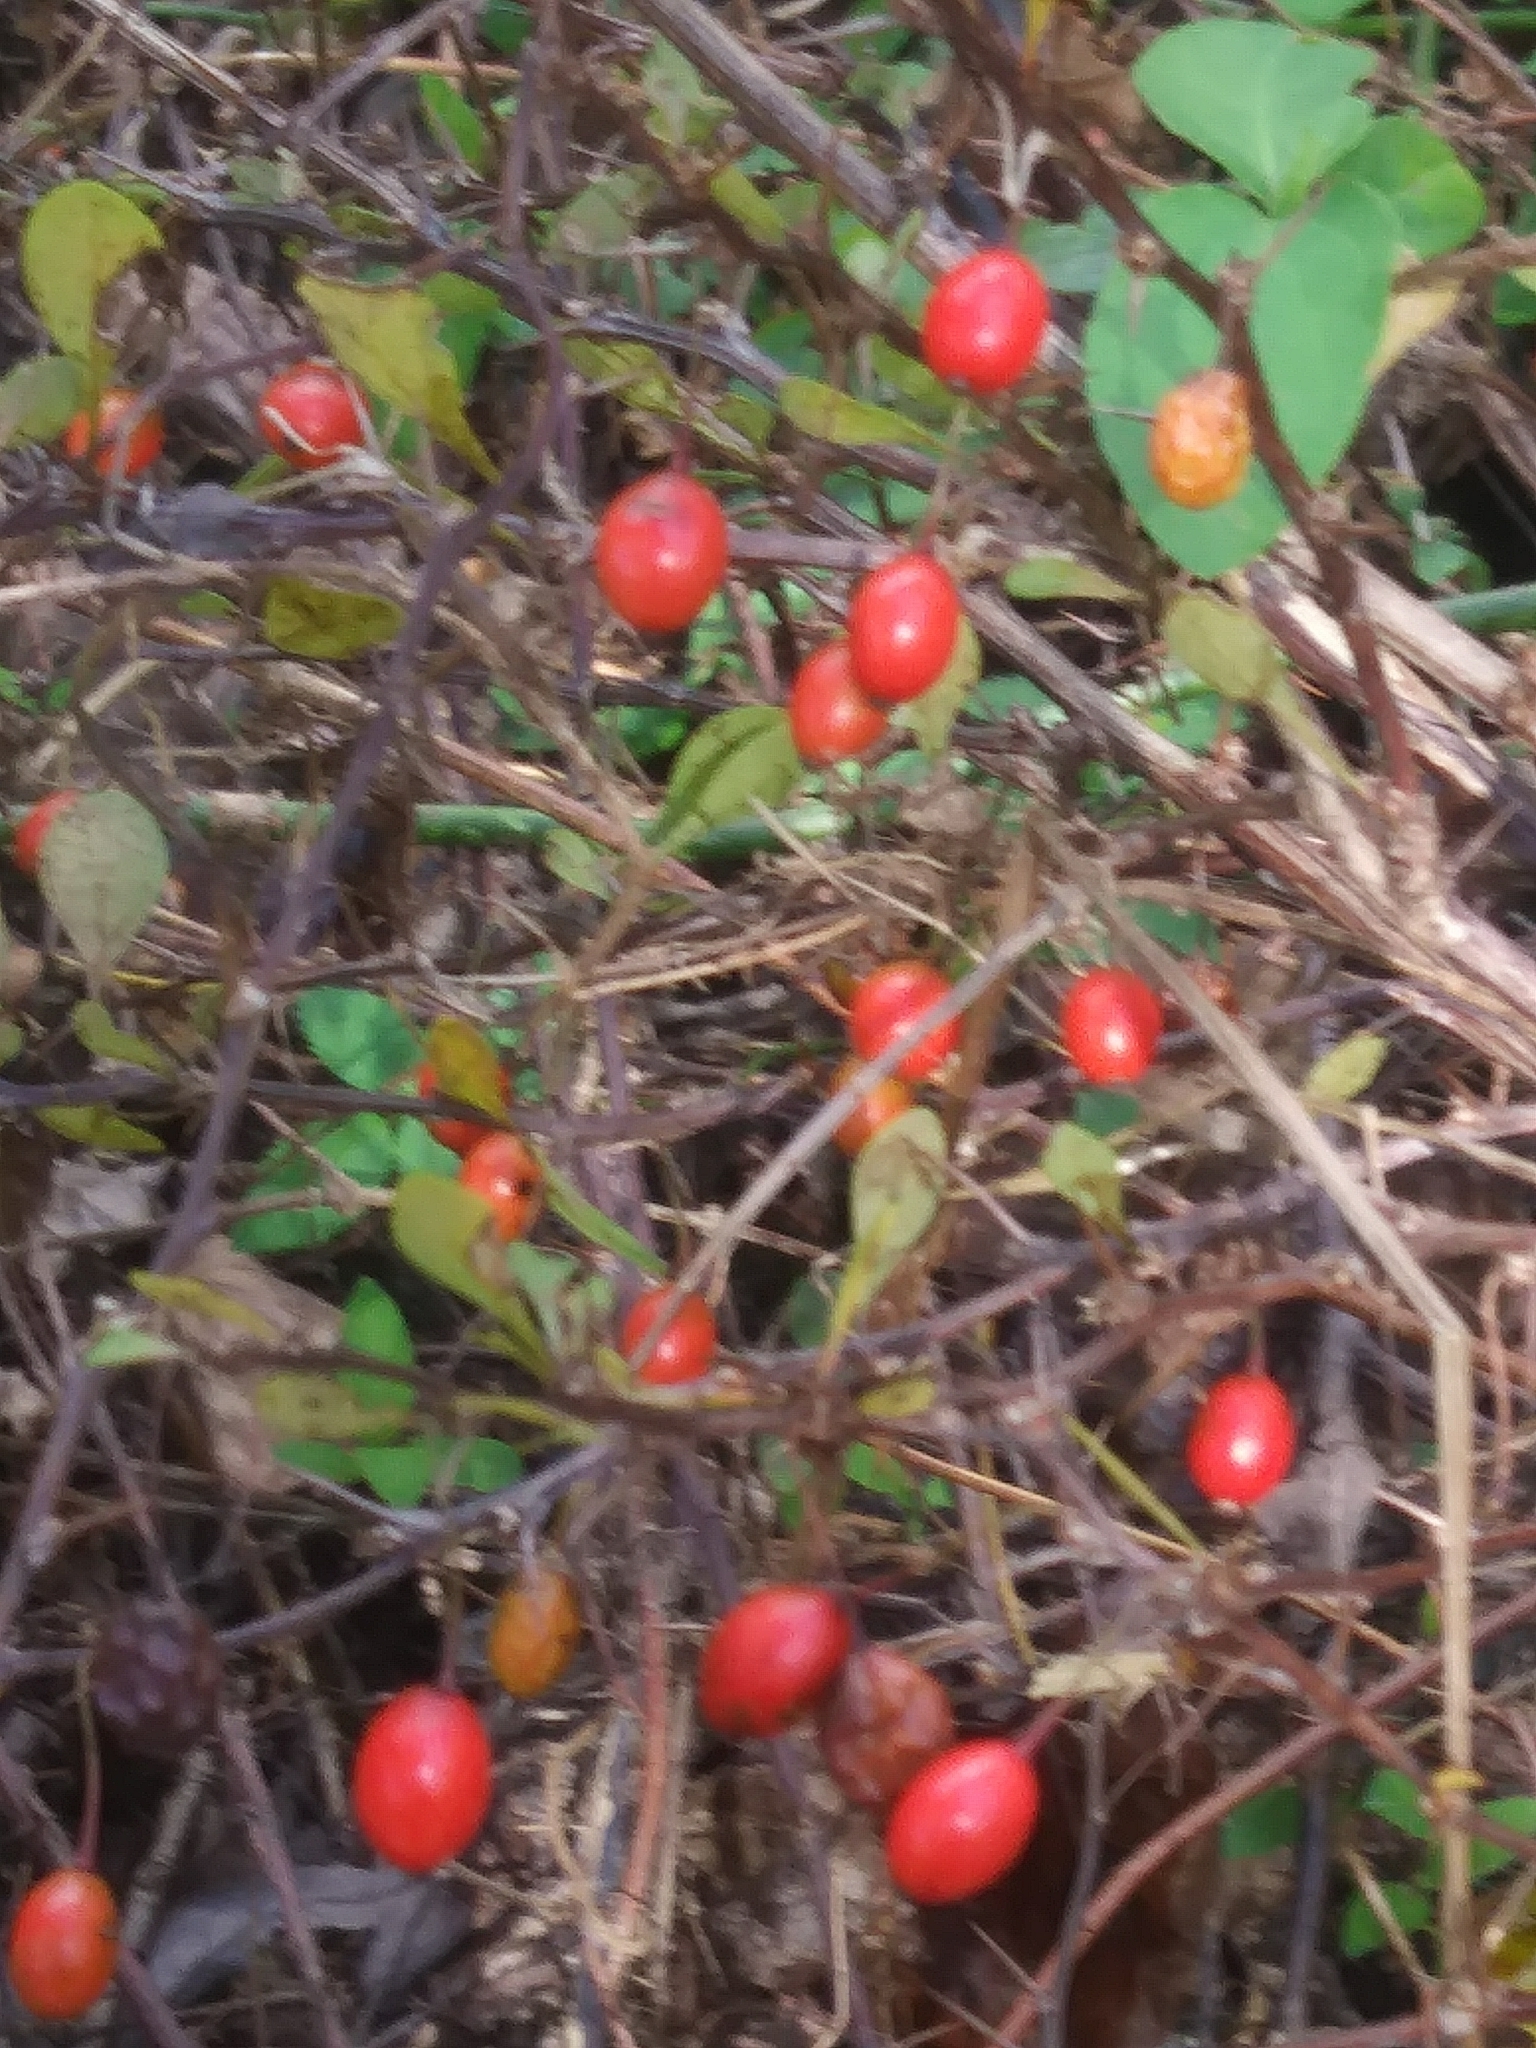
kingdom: Plantae
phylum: Tracheophyta
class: Magnoliopsida
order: Ranunculales
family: Berberidaceae
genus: Berberis
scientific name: Berberis thunbergii
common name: Japanese barberry
